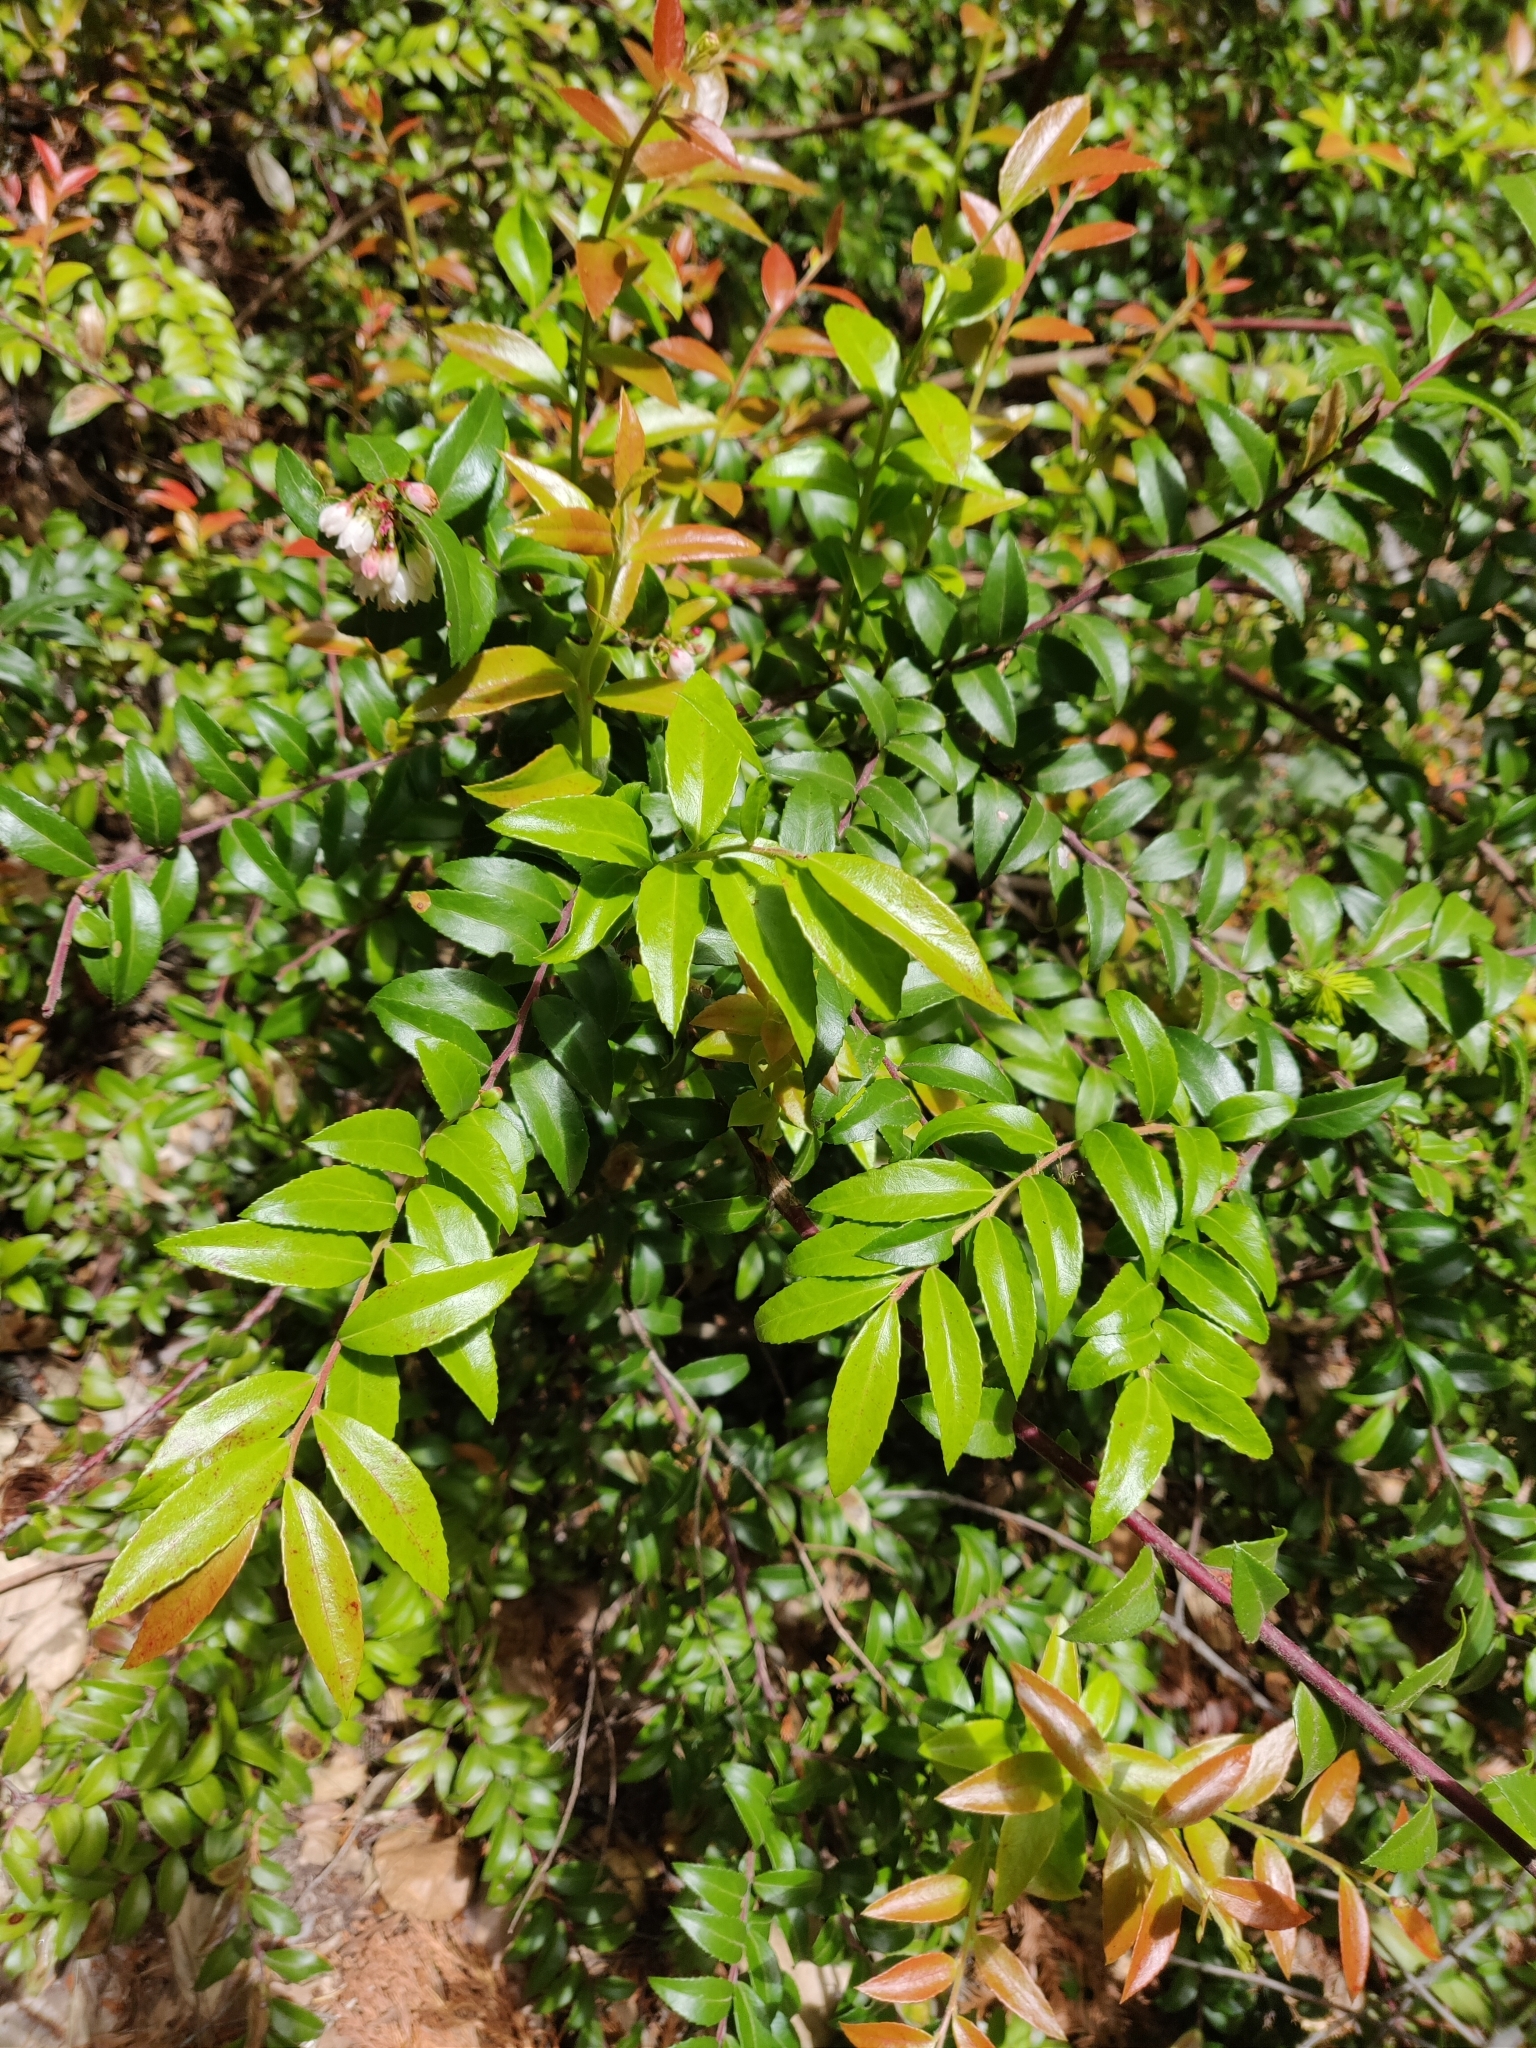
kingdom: Plantae
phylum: Tracheophyta
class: Magnoliopsida
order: Ericales
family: Ericaceae
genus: Vaccinium
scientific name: Vaccinium ovatum
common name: California-huckleberry
